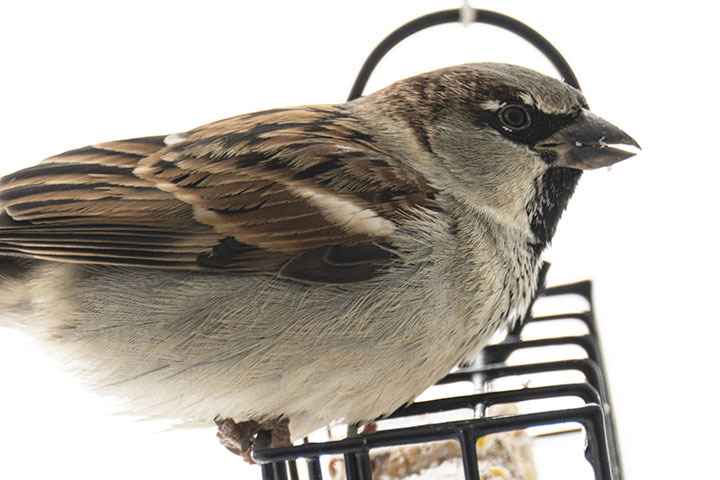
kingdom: Animalia
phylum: Chordata
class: Aves
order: Passeriformes
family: Passeridae
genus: Passer
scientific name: Passer domesticus
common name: House sparrow
